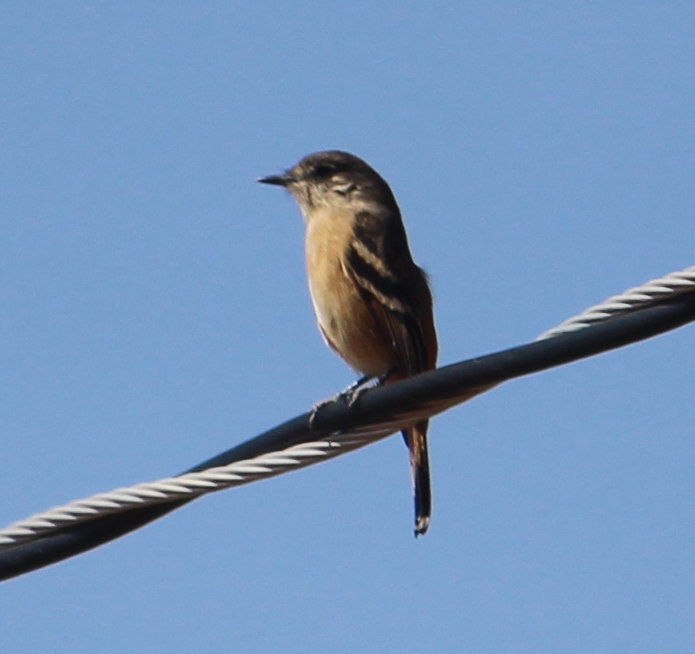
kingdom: Animalia
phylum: Chordata
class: Aves
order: Passeriformes
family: Tyrannidae
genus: Knipolegus
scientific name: Knipolegus aterrimus
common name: White-winged black tyrant
